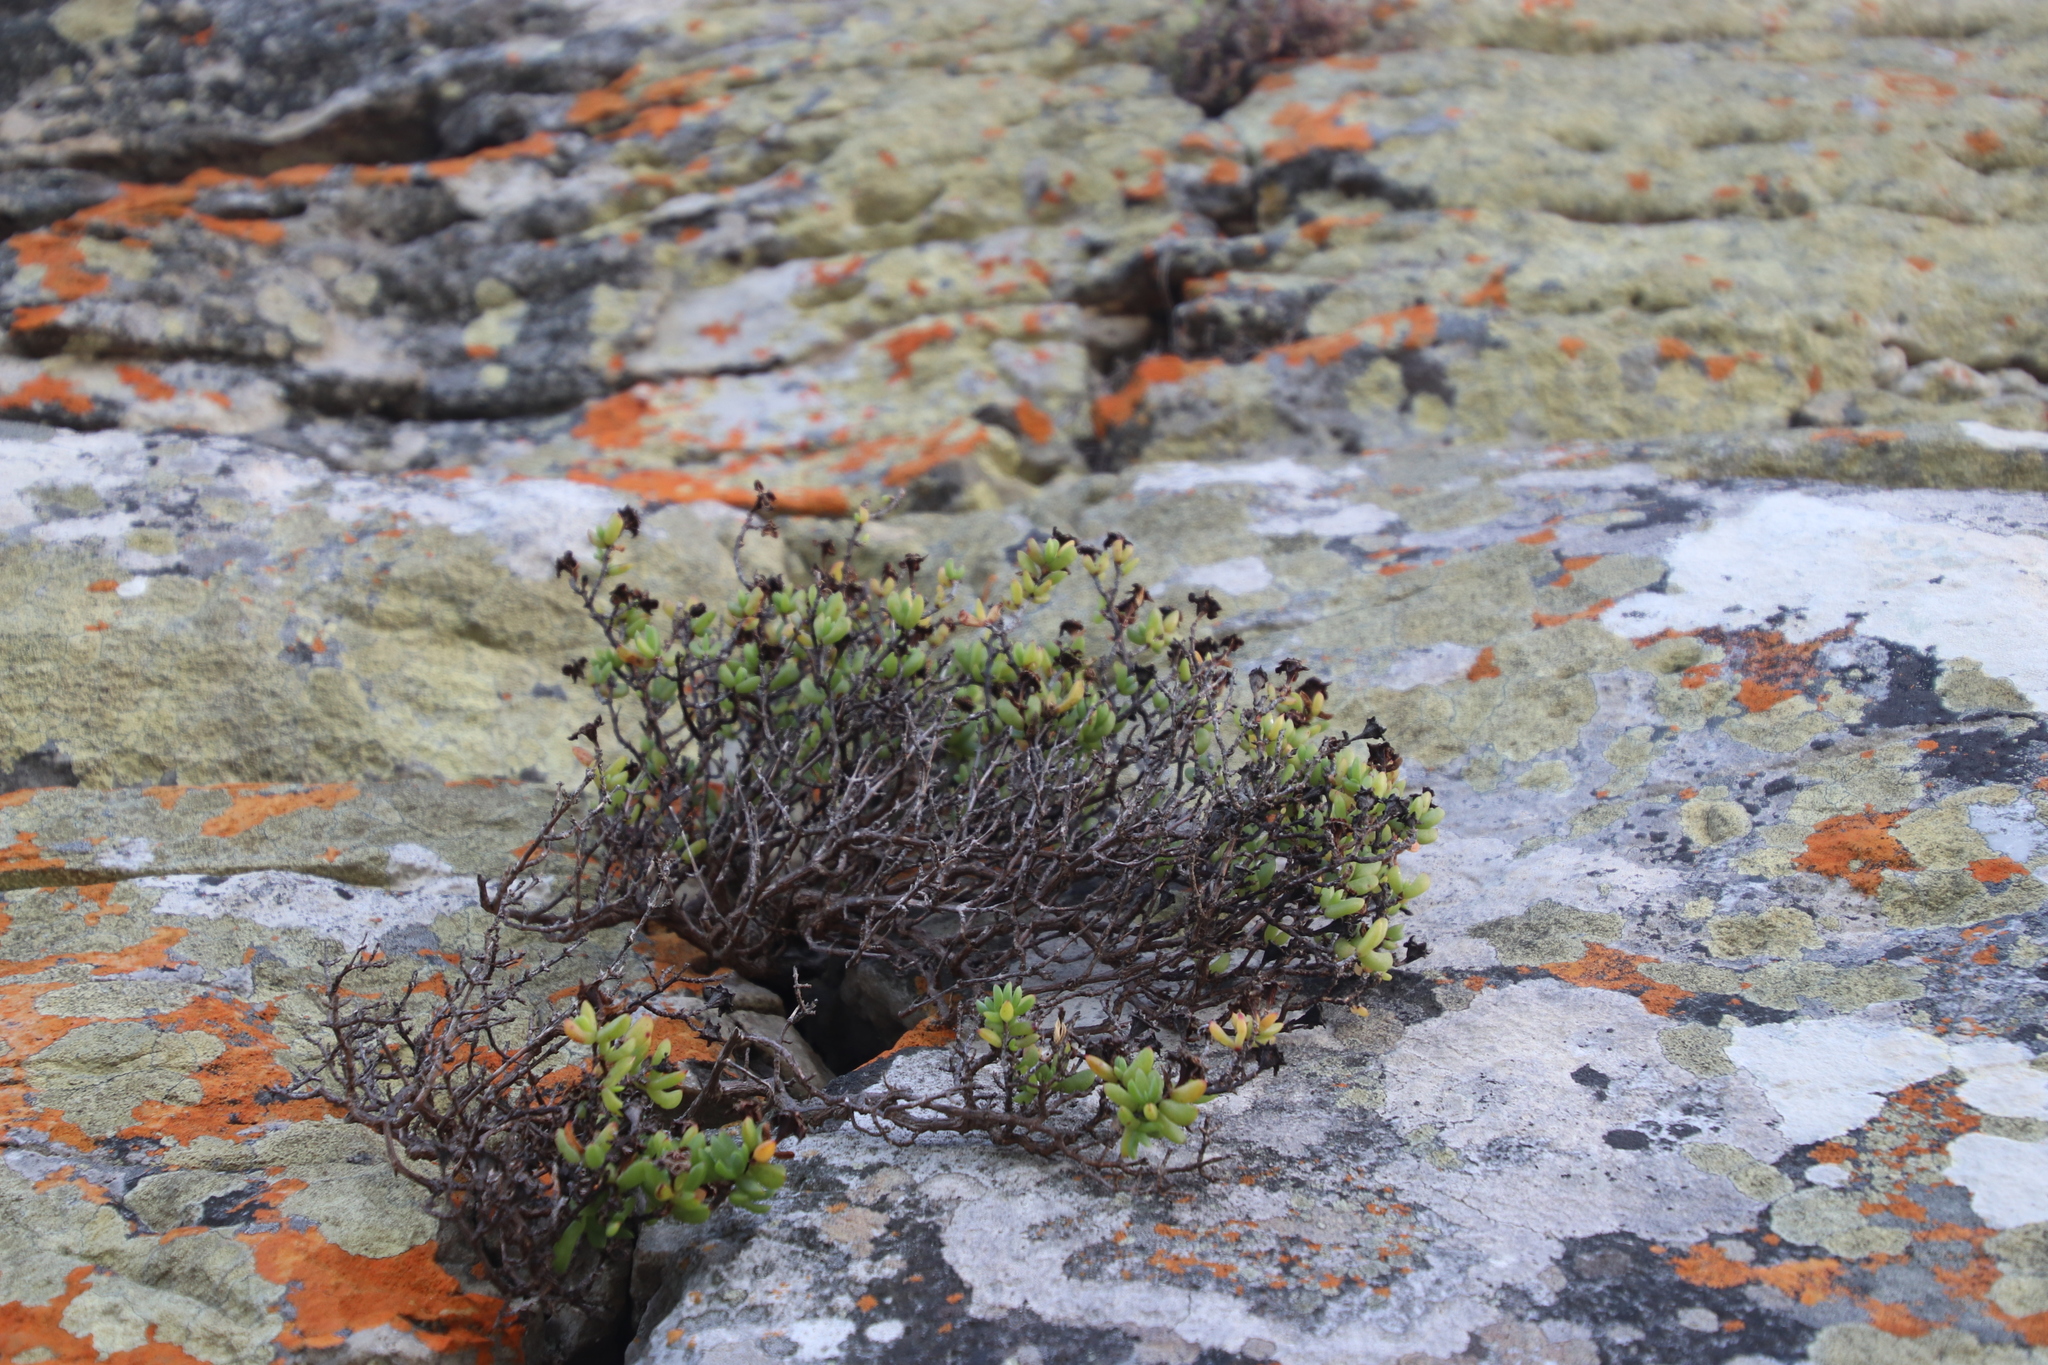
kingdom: Plantae
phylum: Tracheophyta
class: Magnoliopsida
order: Caryophyllales
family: Aizoaceae
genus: Oscularia
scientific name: Oscularia falciformis
